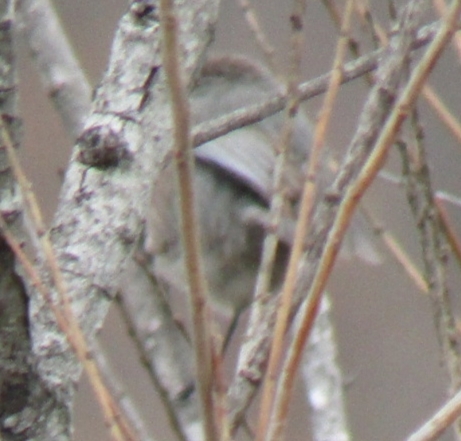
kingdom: Animalia
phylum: Chordata
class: Aves
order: Passeriformes
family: Aegithalidae
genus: Psaltriparus
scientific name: Psaltriparus minimus
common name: American bushtit
